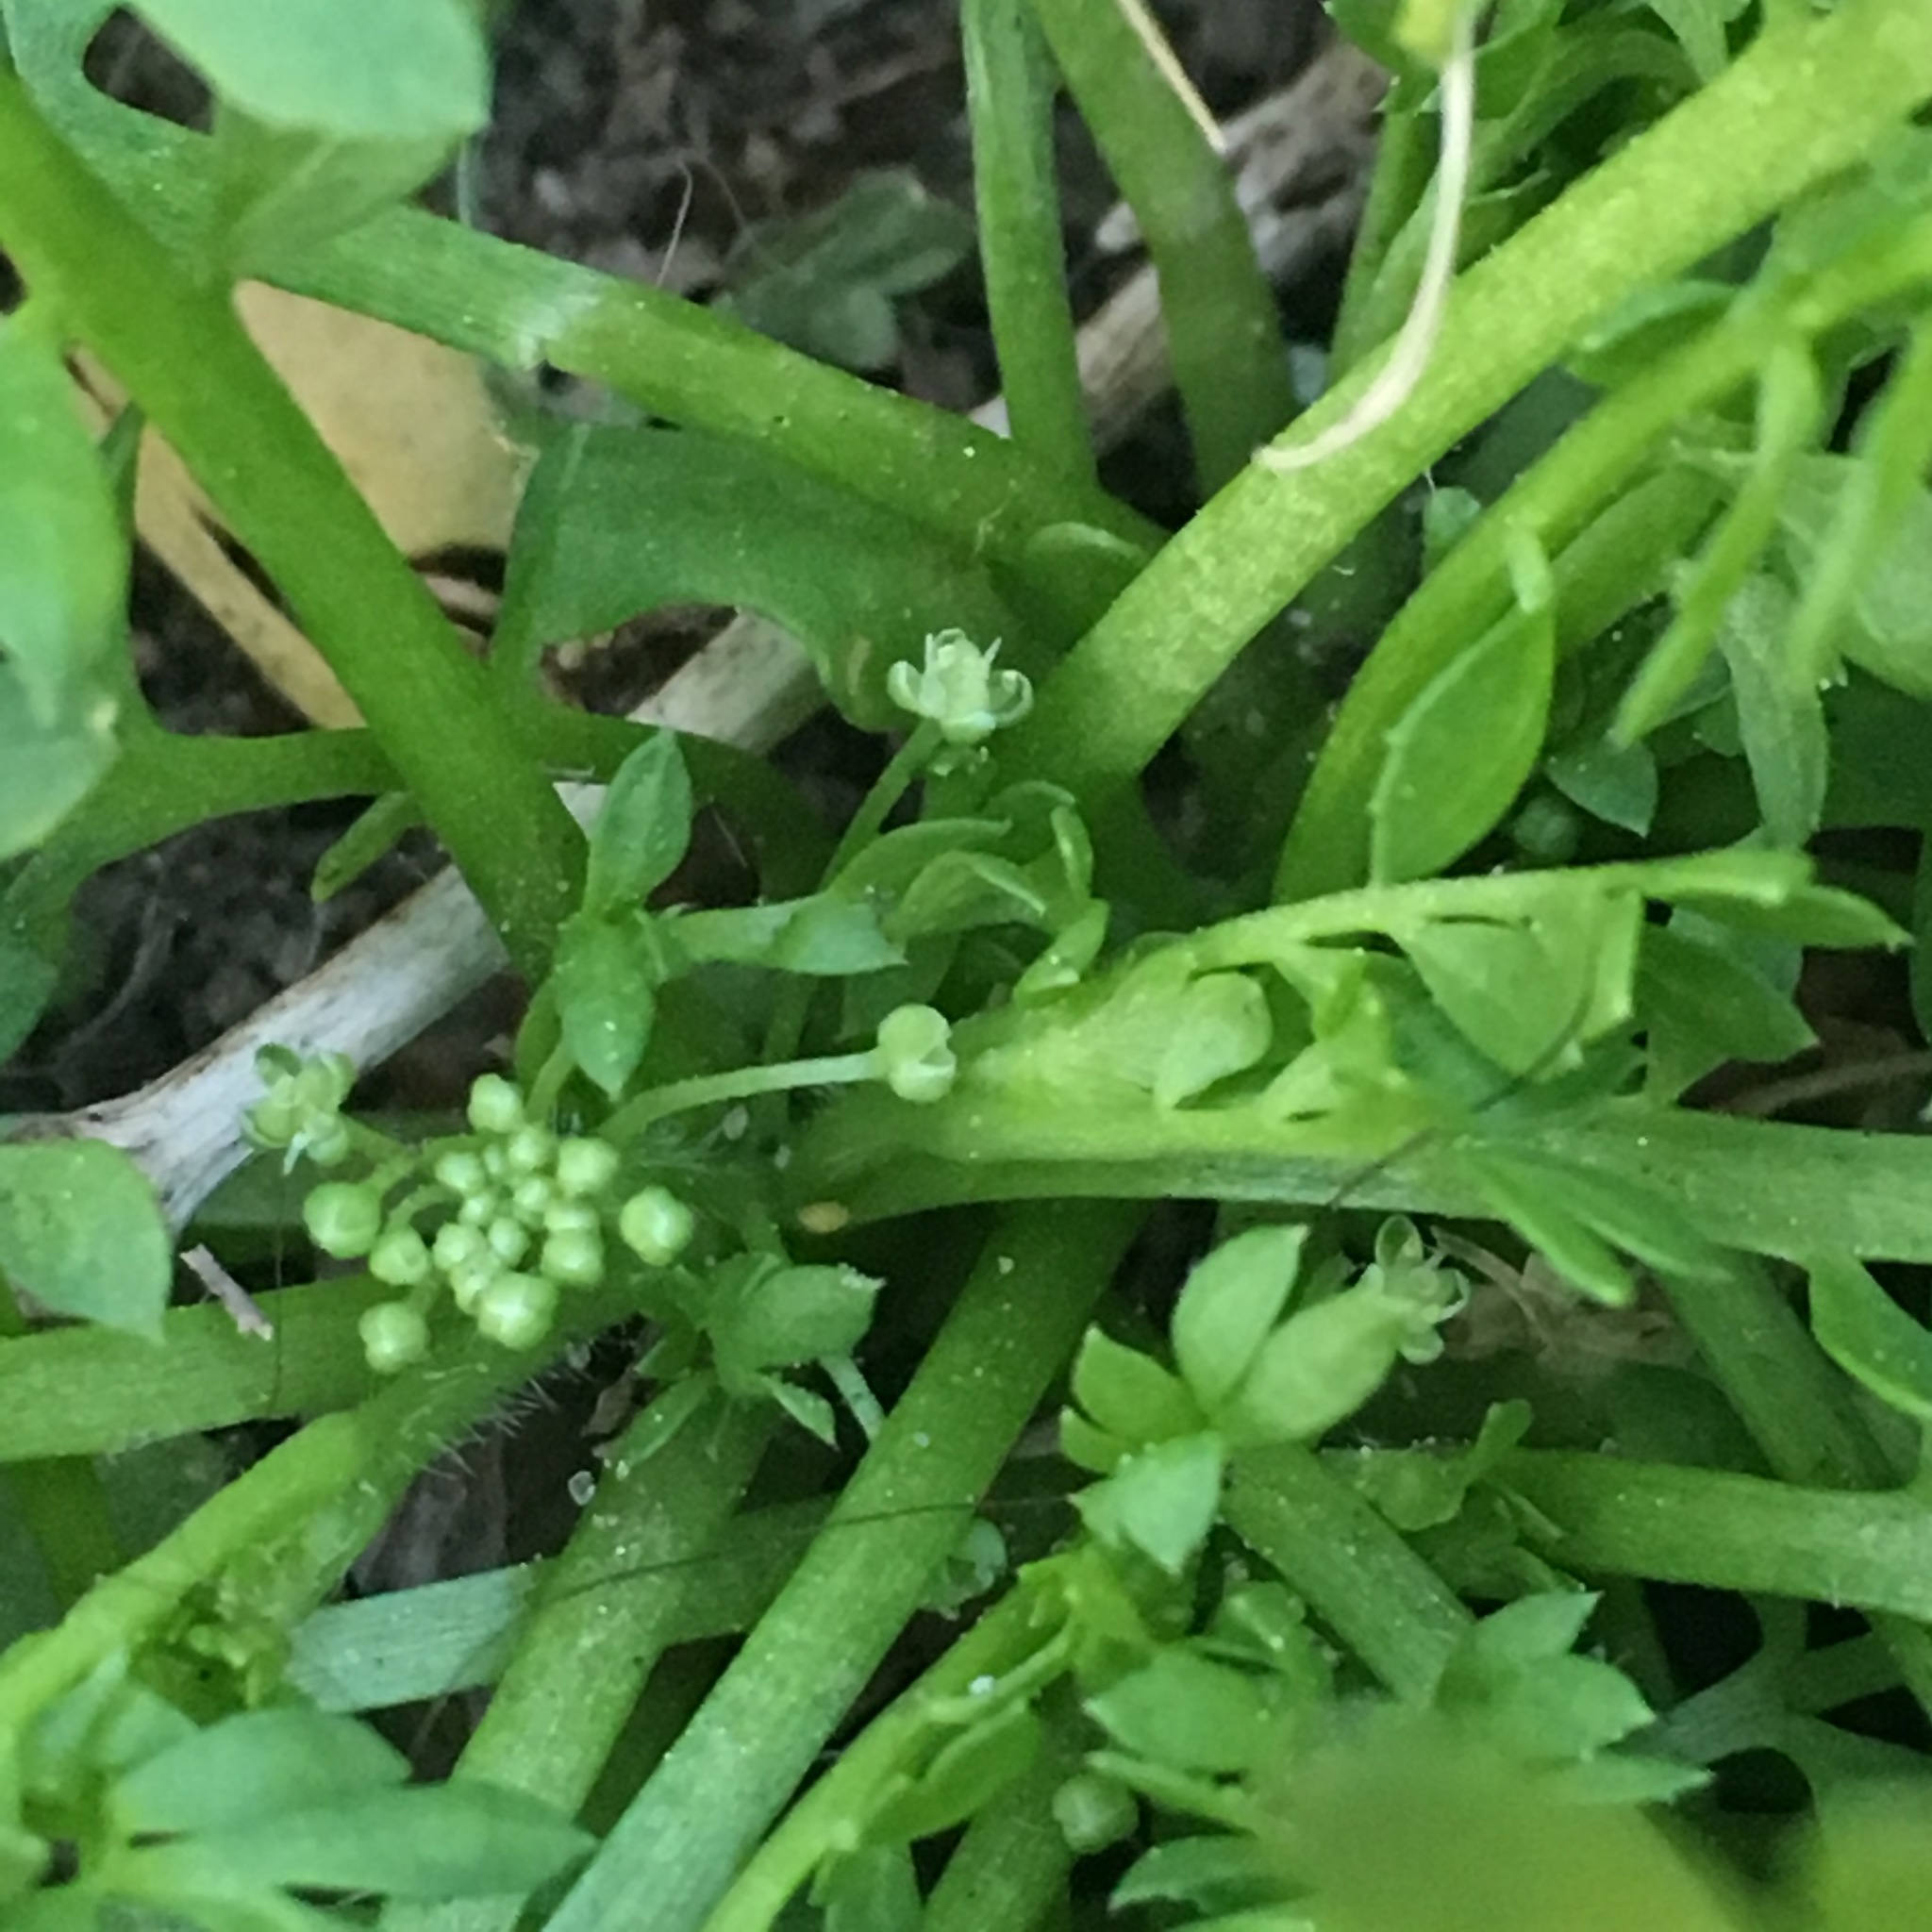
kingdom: Plantae
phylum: Tracheophyta
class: Magnoliopsida
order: Brassicales
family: Brassicaceae
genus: Lepidium
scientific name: Lepidium didymum
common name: Lesser swinecress
